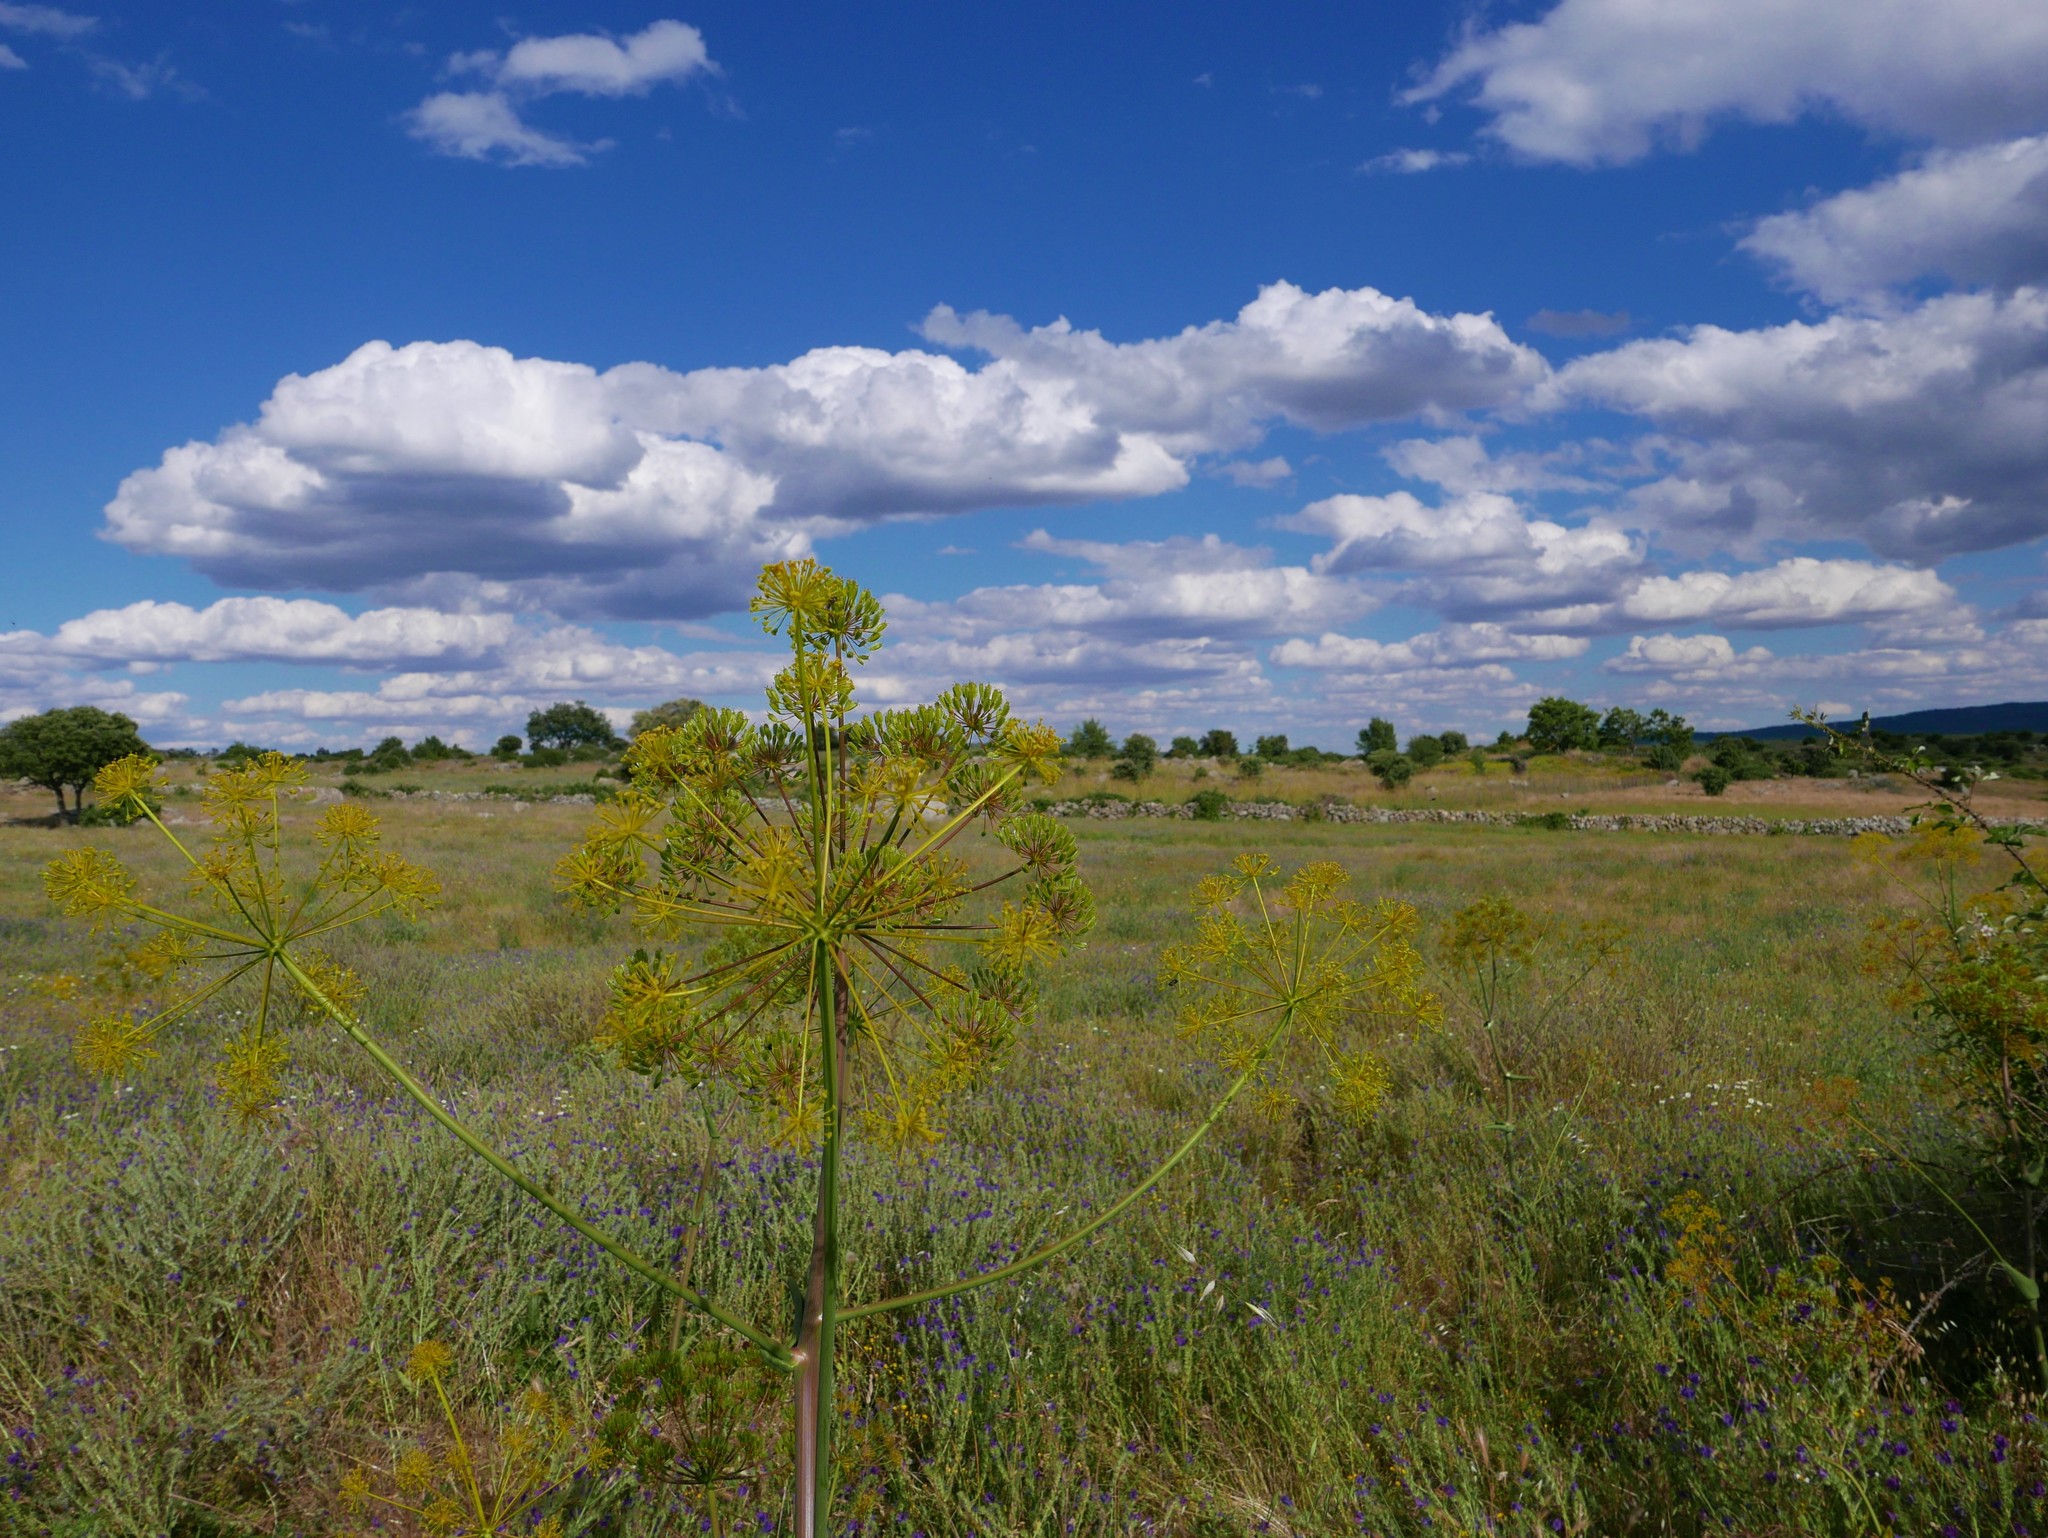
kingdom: Plantae
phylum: Tracheophyta
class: Magnoliopsida
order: Apiales
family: Apiaceae
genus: Thapsia
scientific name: Thapsia villosa
